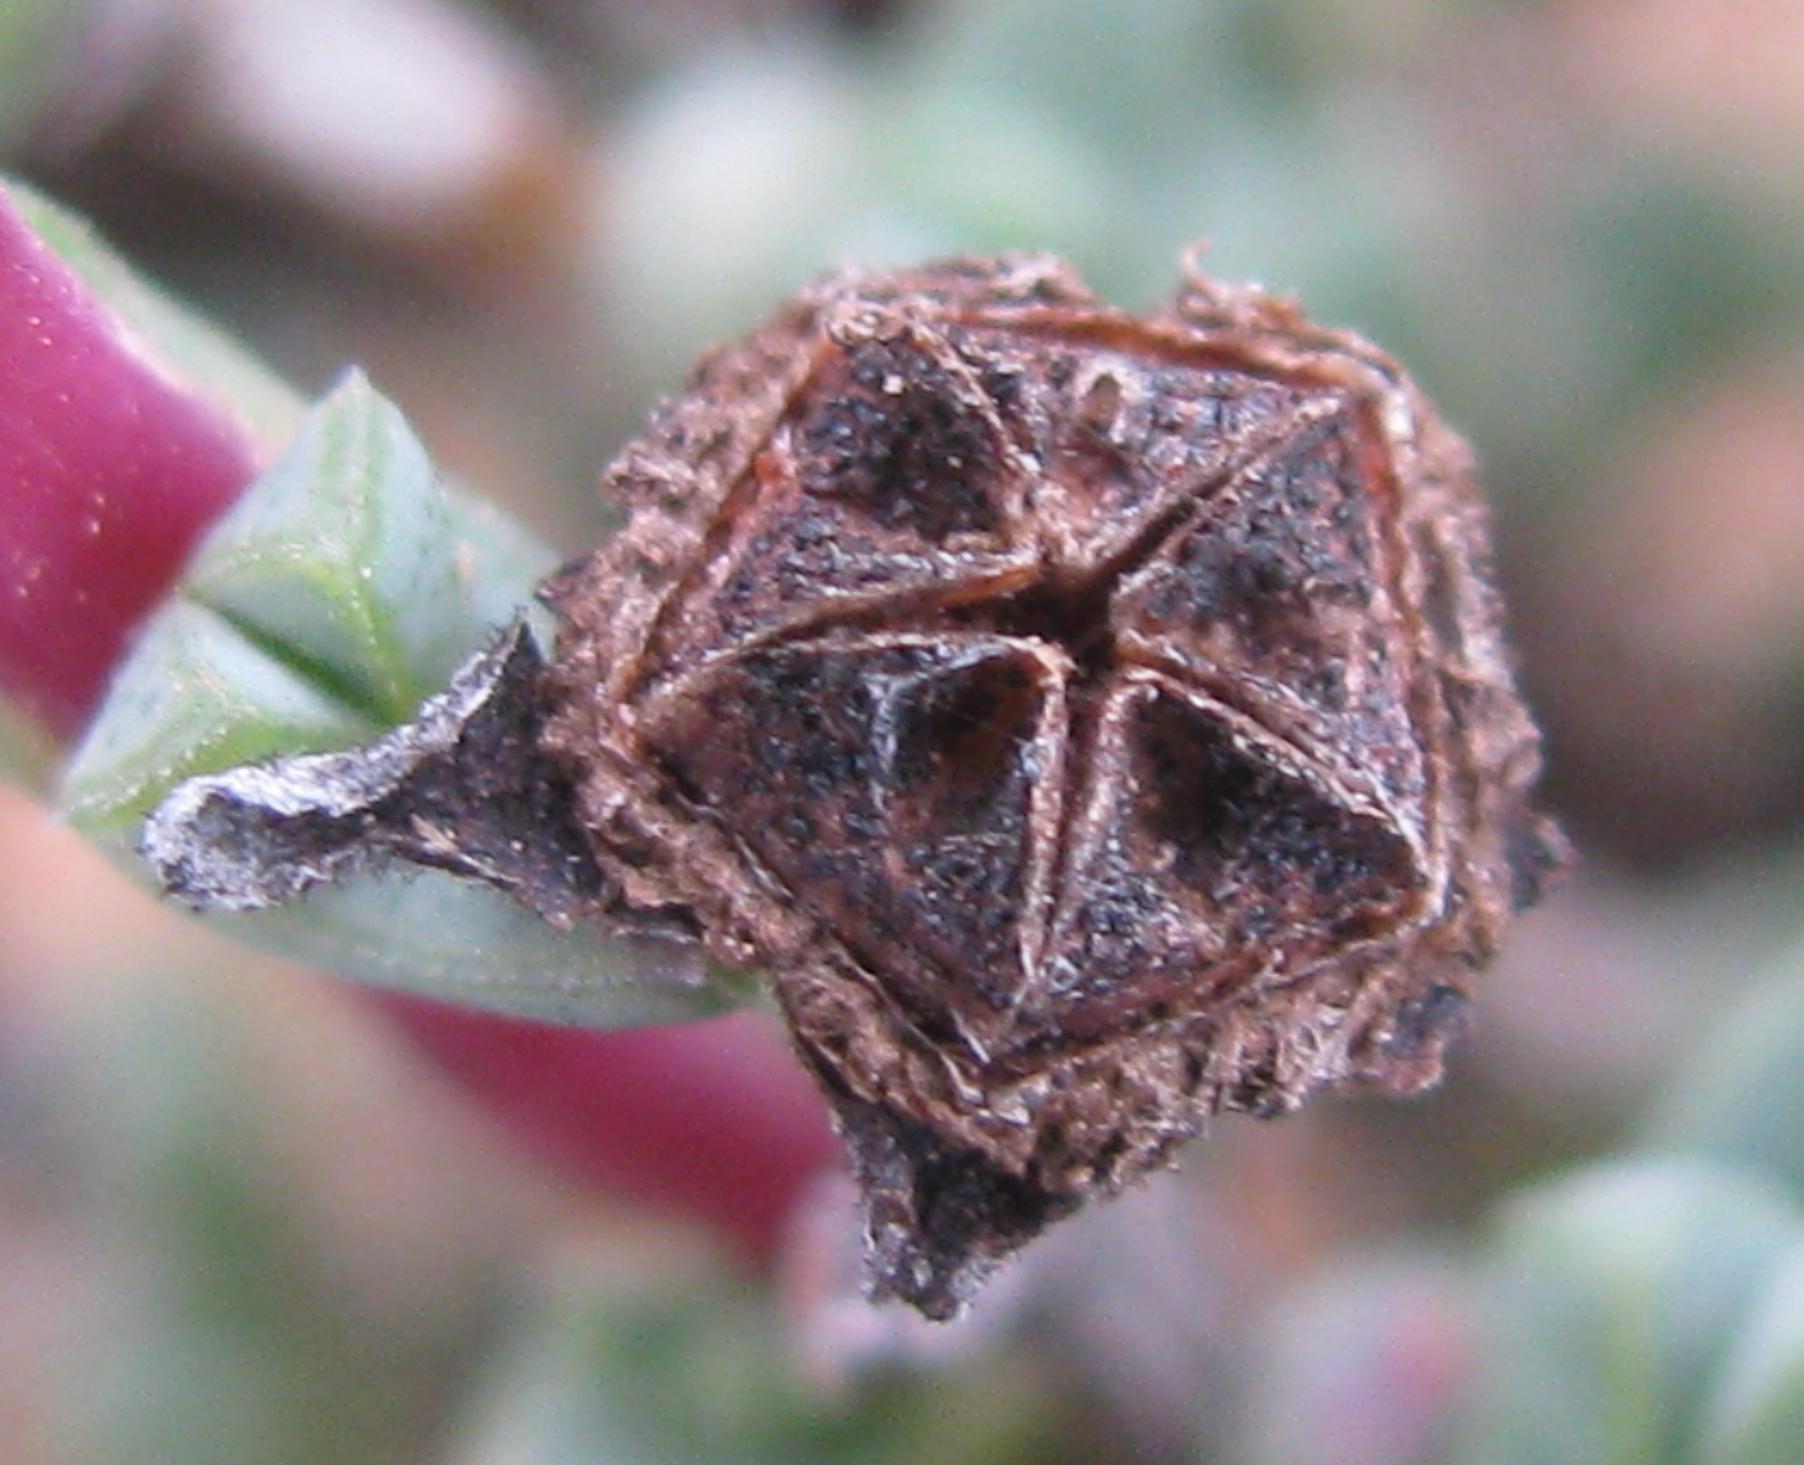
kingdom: Plantae
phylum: Tracheophyta
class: Magnoliopsida
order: Caryophyllales
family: Aizoaceae
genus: Antimima
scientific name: Antimima triquetra
